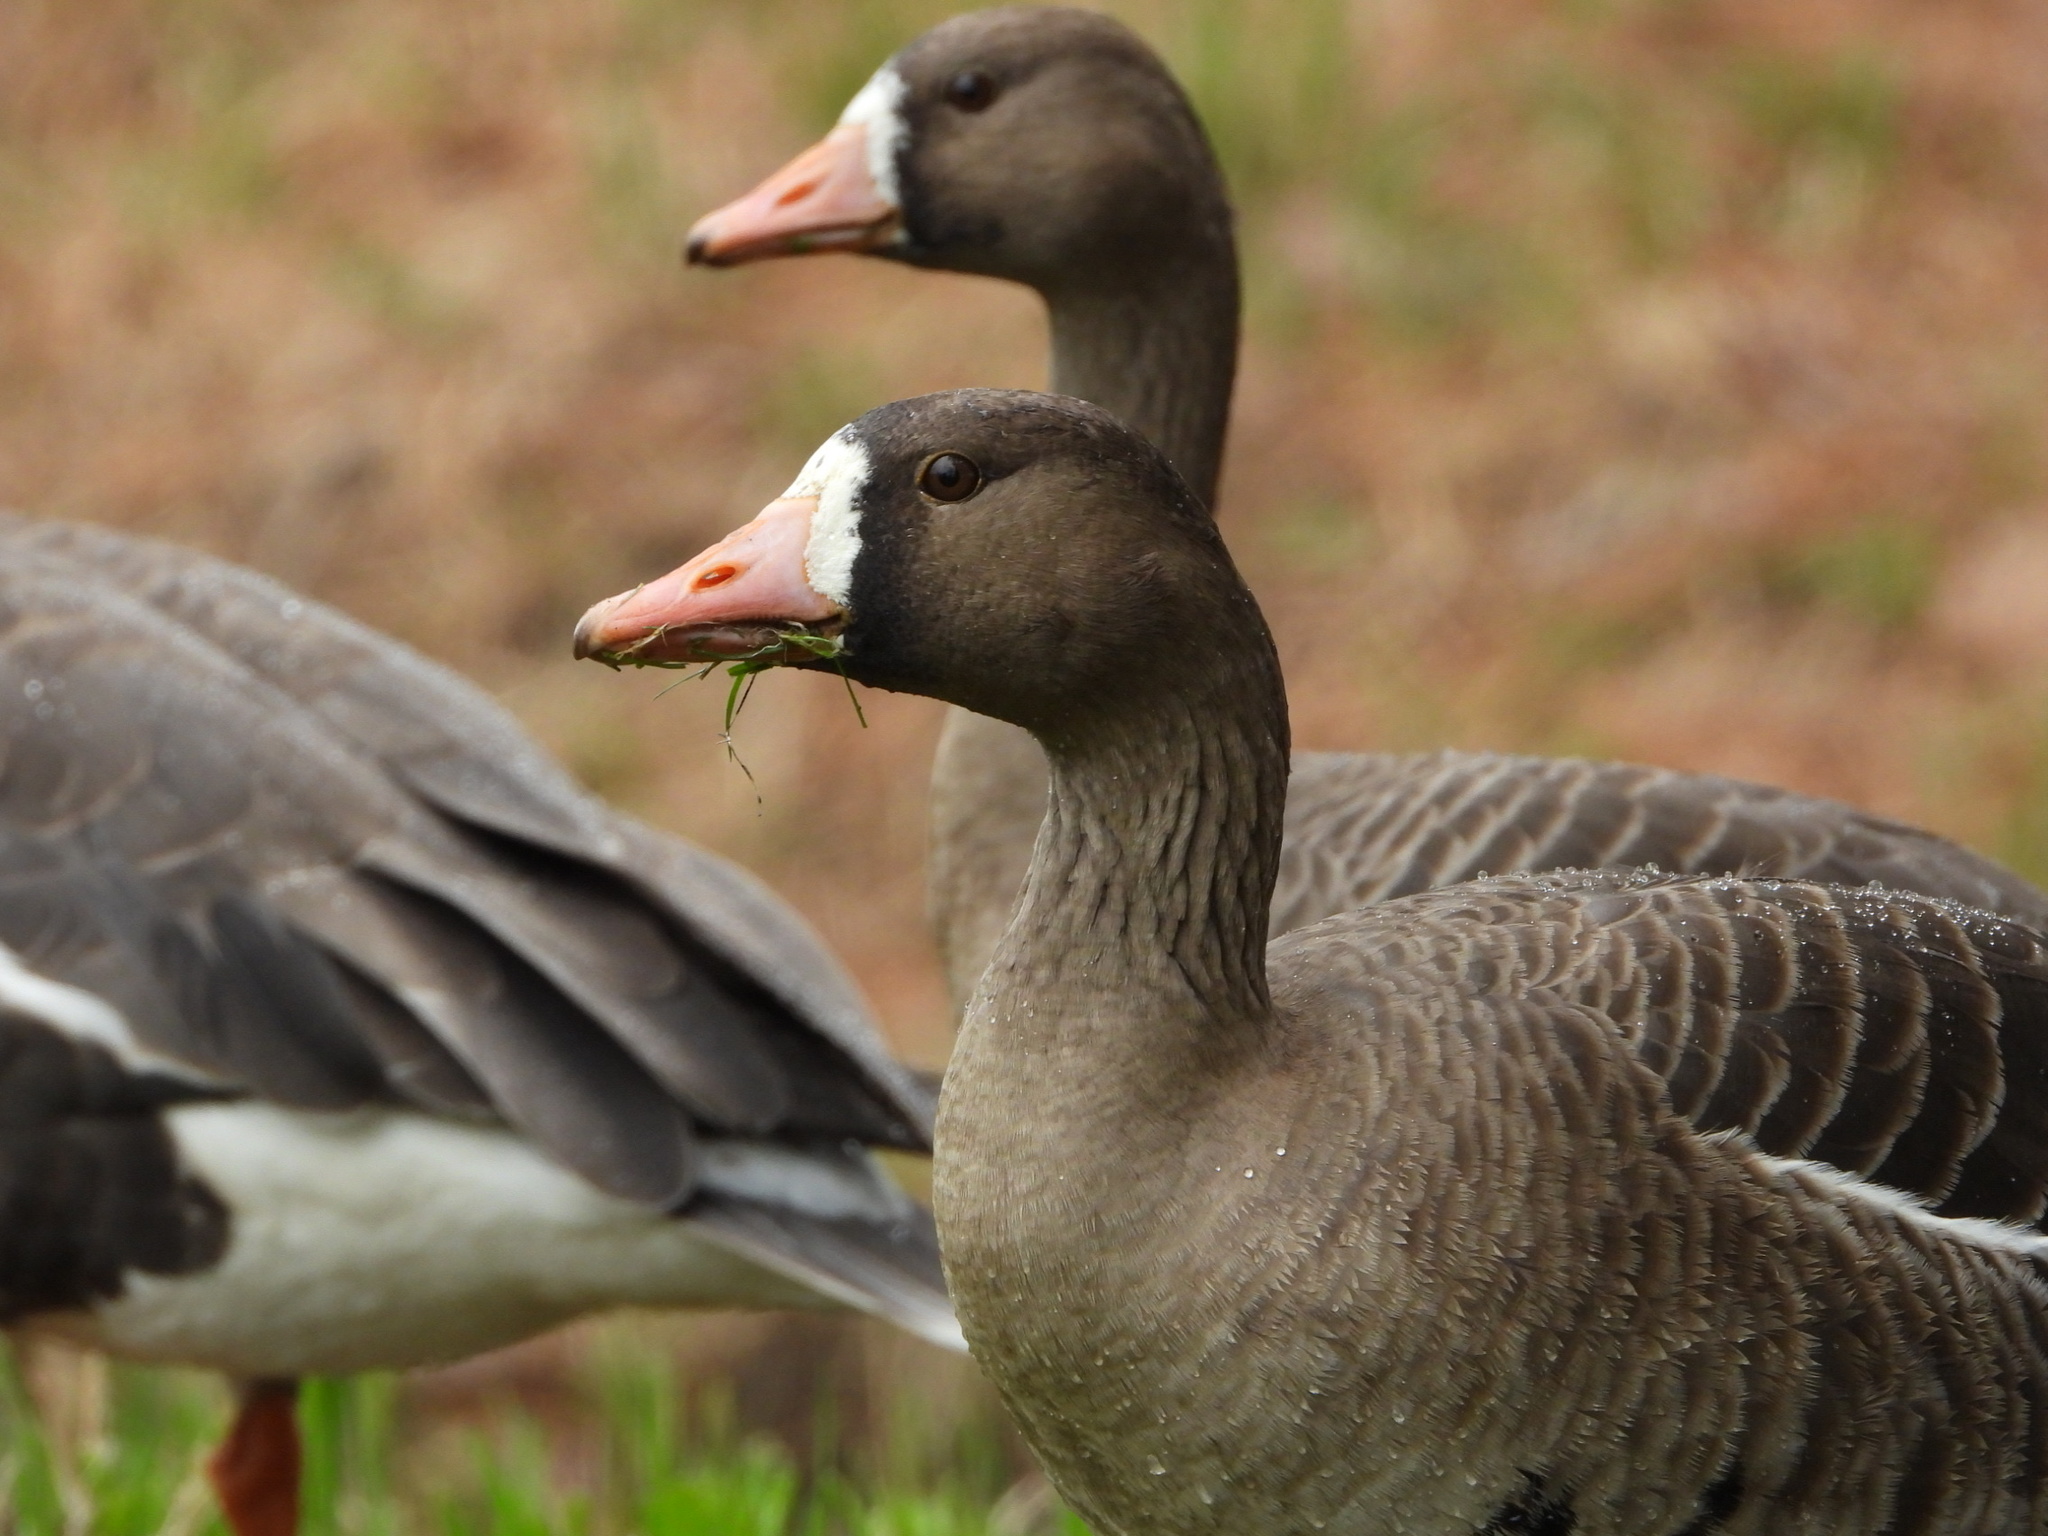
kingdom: Animalia
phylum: Chordata
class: Aves
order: Anseriformes
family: Anatidae
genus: Anser
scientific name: Anser albifrons
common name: Greater white-fronted goose
